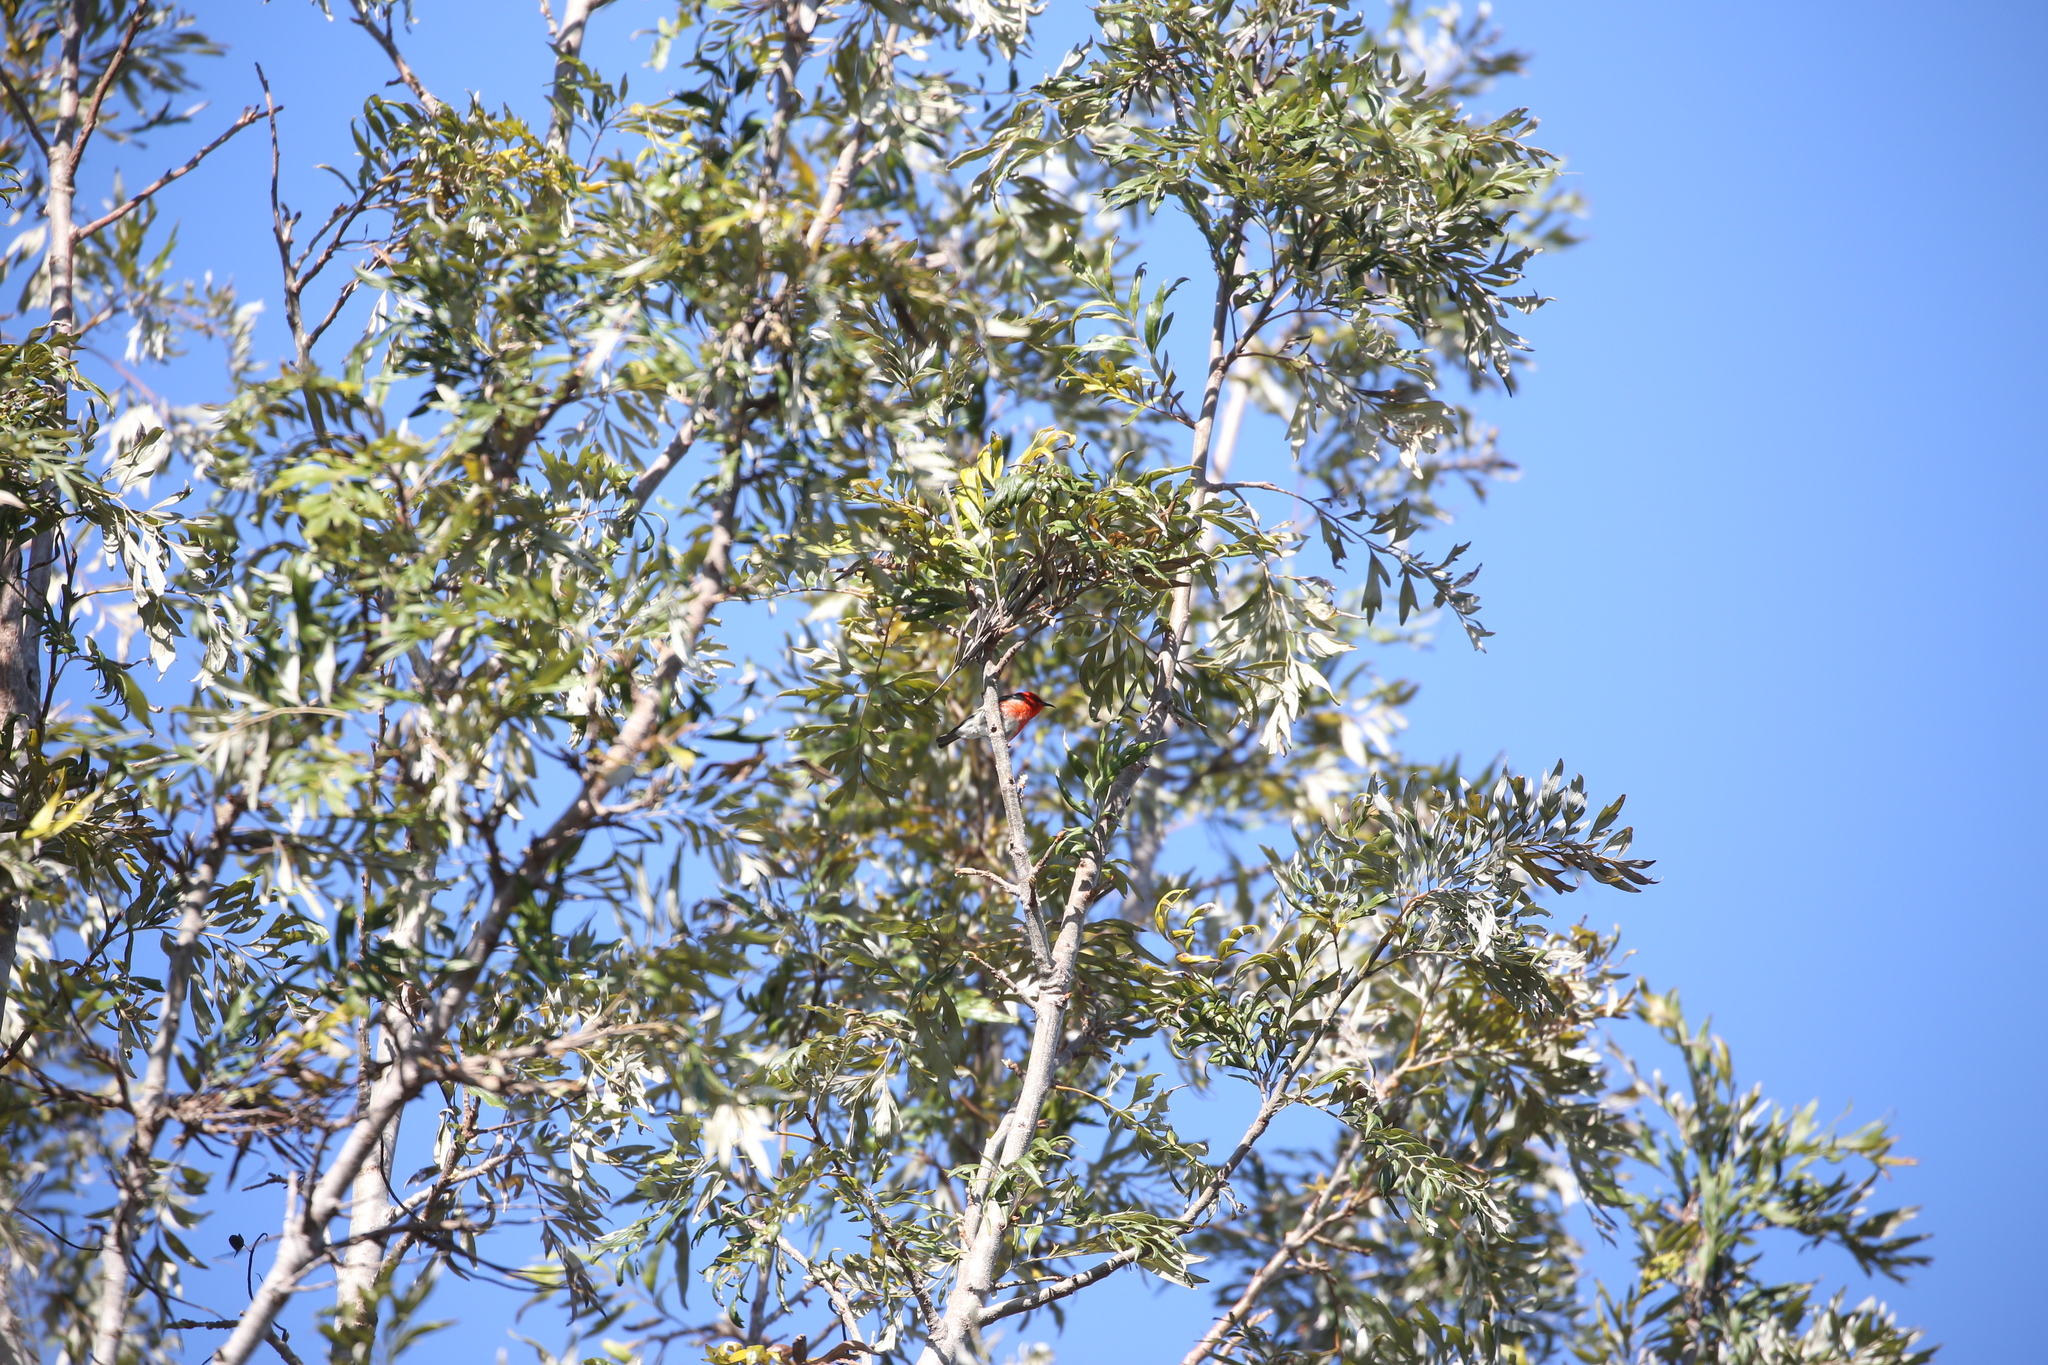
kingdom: Animalia
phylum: Chordata
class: Aves
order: Passeriformes
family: Meliphagidae
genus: Myzomela
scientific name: Myzomela sanguinolenta
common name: Scarlet myzomela
